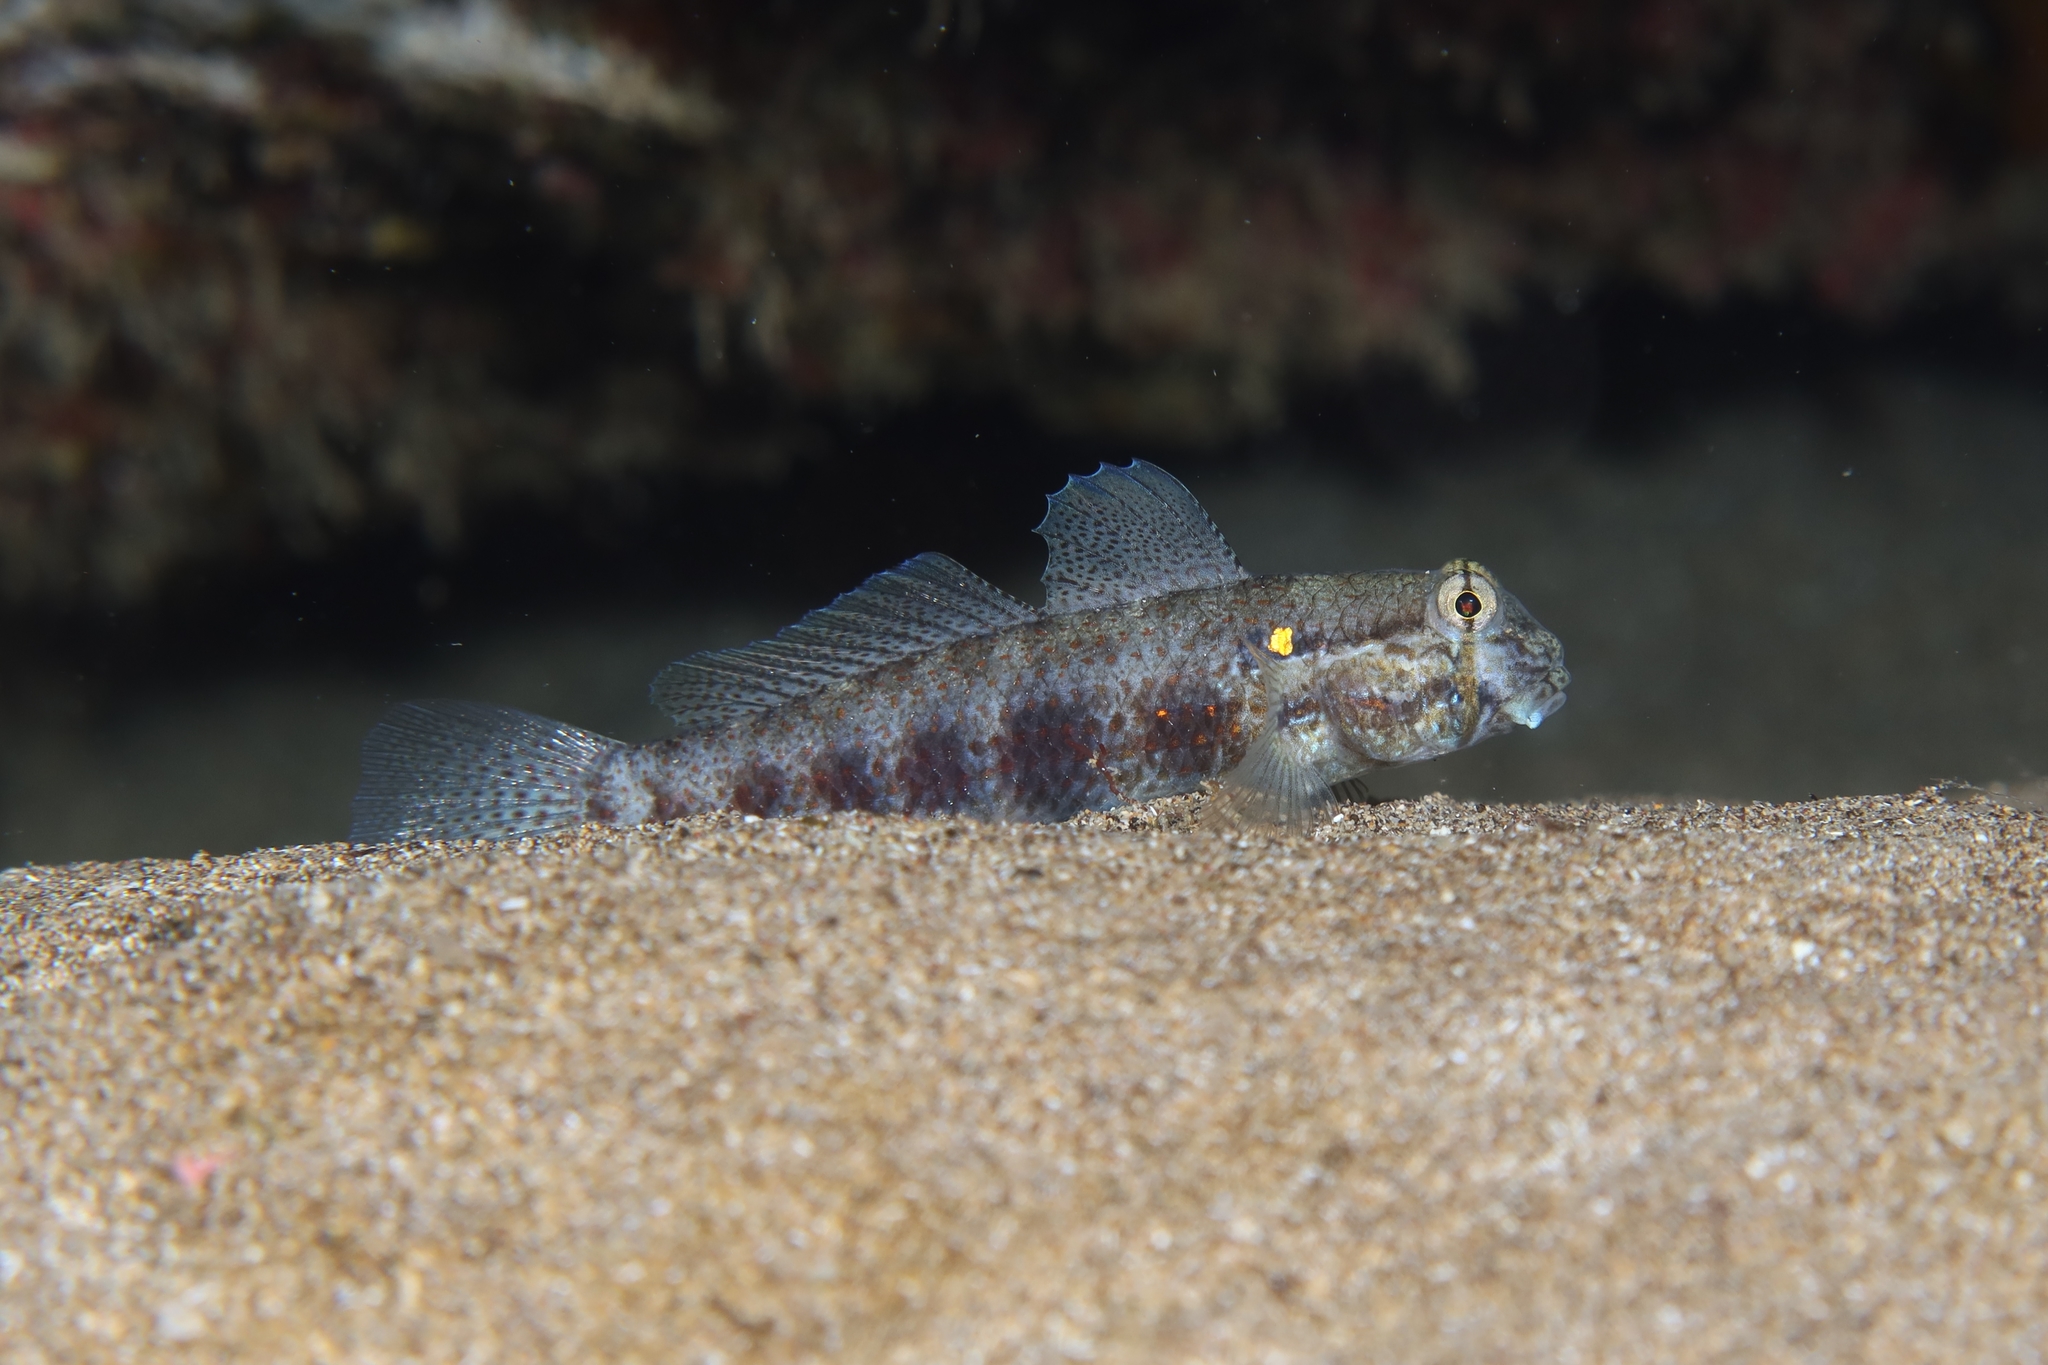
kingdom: Animalia
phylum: Chordata
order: Perciformes
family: Gobiidae
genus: Gnatholepis
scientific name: Gnatholepis thompsoni
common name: Goldspot goby
